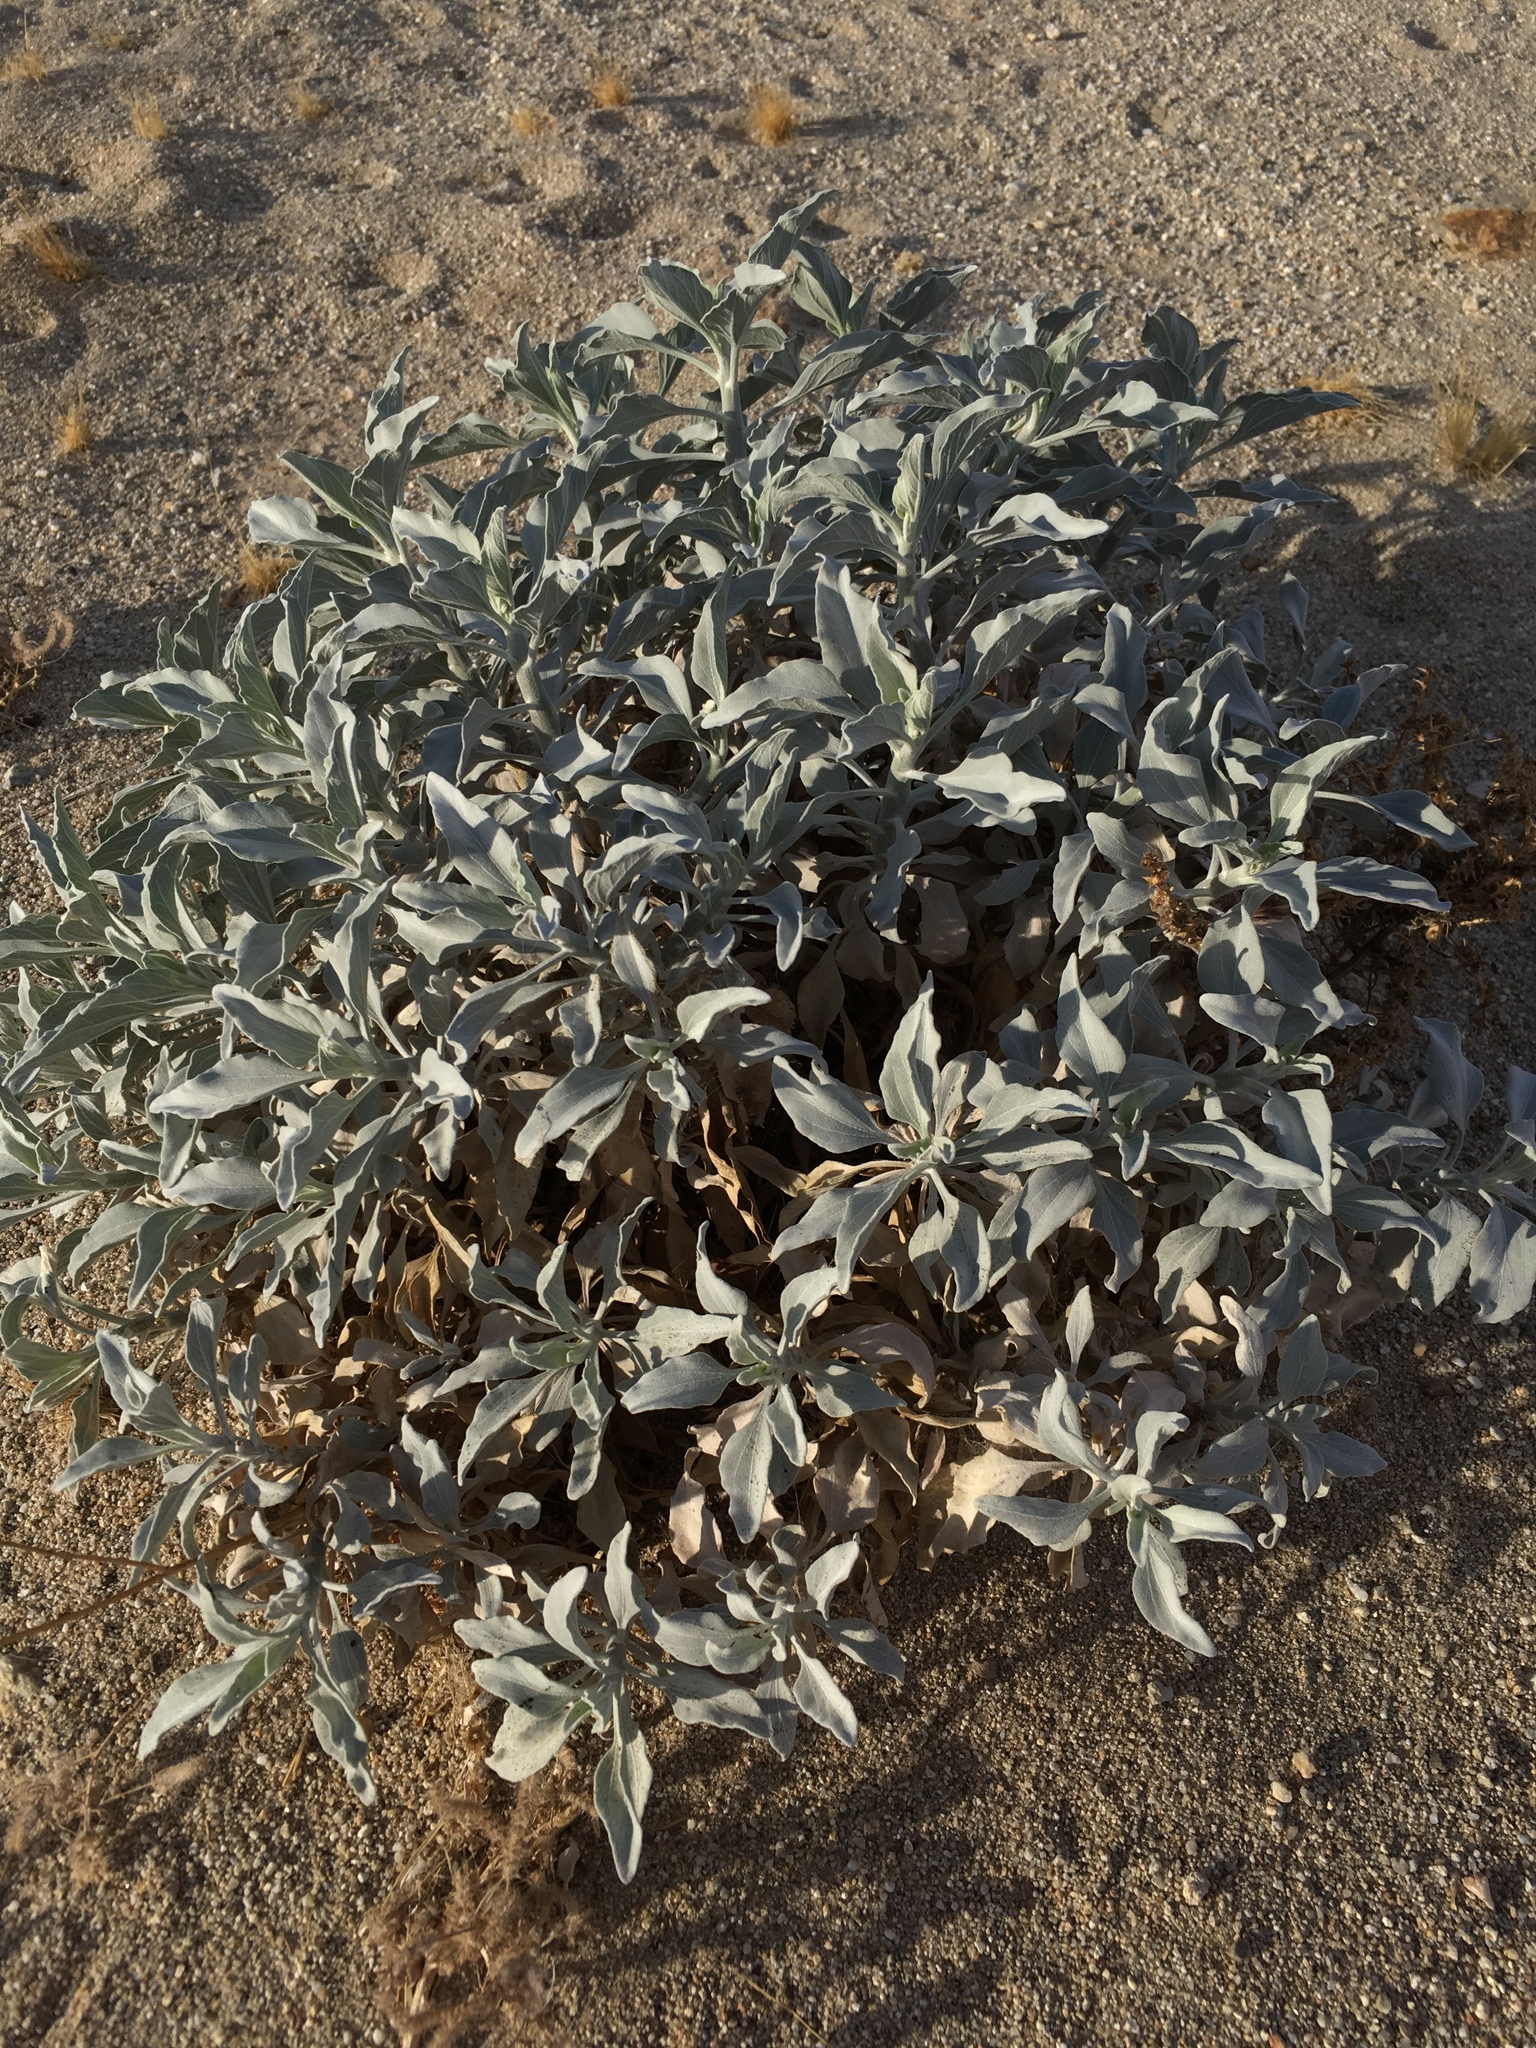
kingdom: Plantae
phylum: Tracheophyta
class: Magnoliopsida
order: Asterales
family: Asteraceae
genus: Encelia
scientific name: Encelia farinosa
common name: Brittlebush
